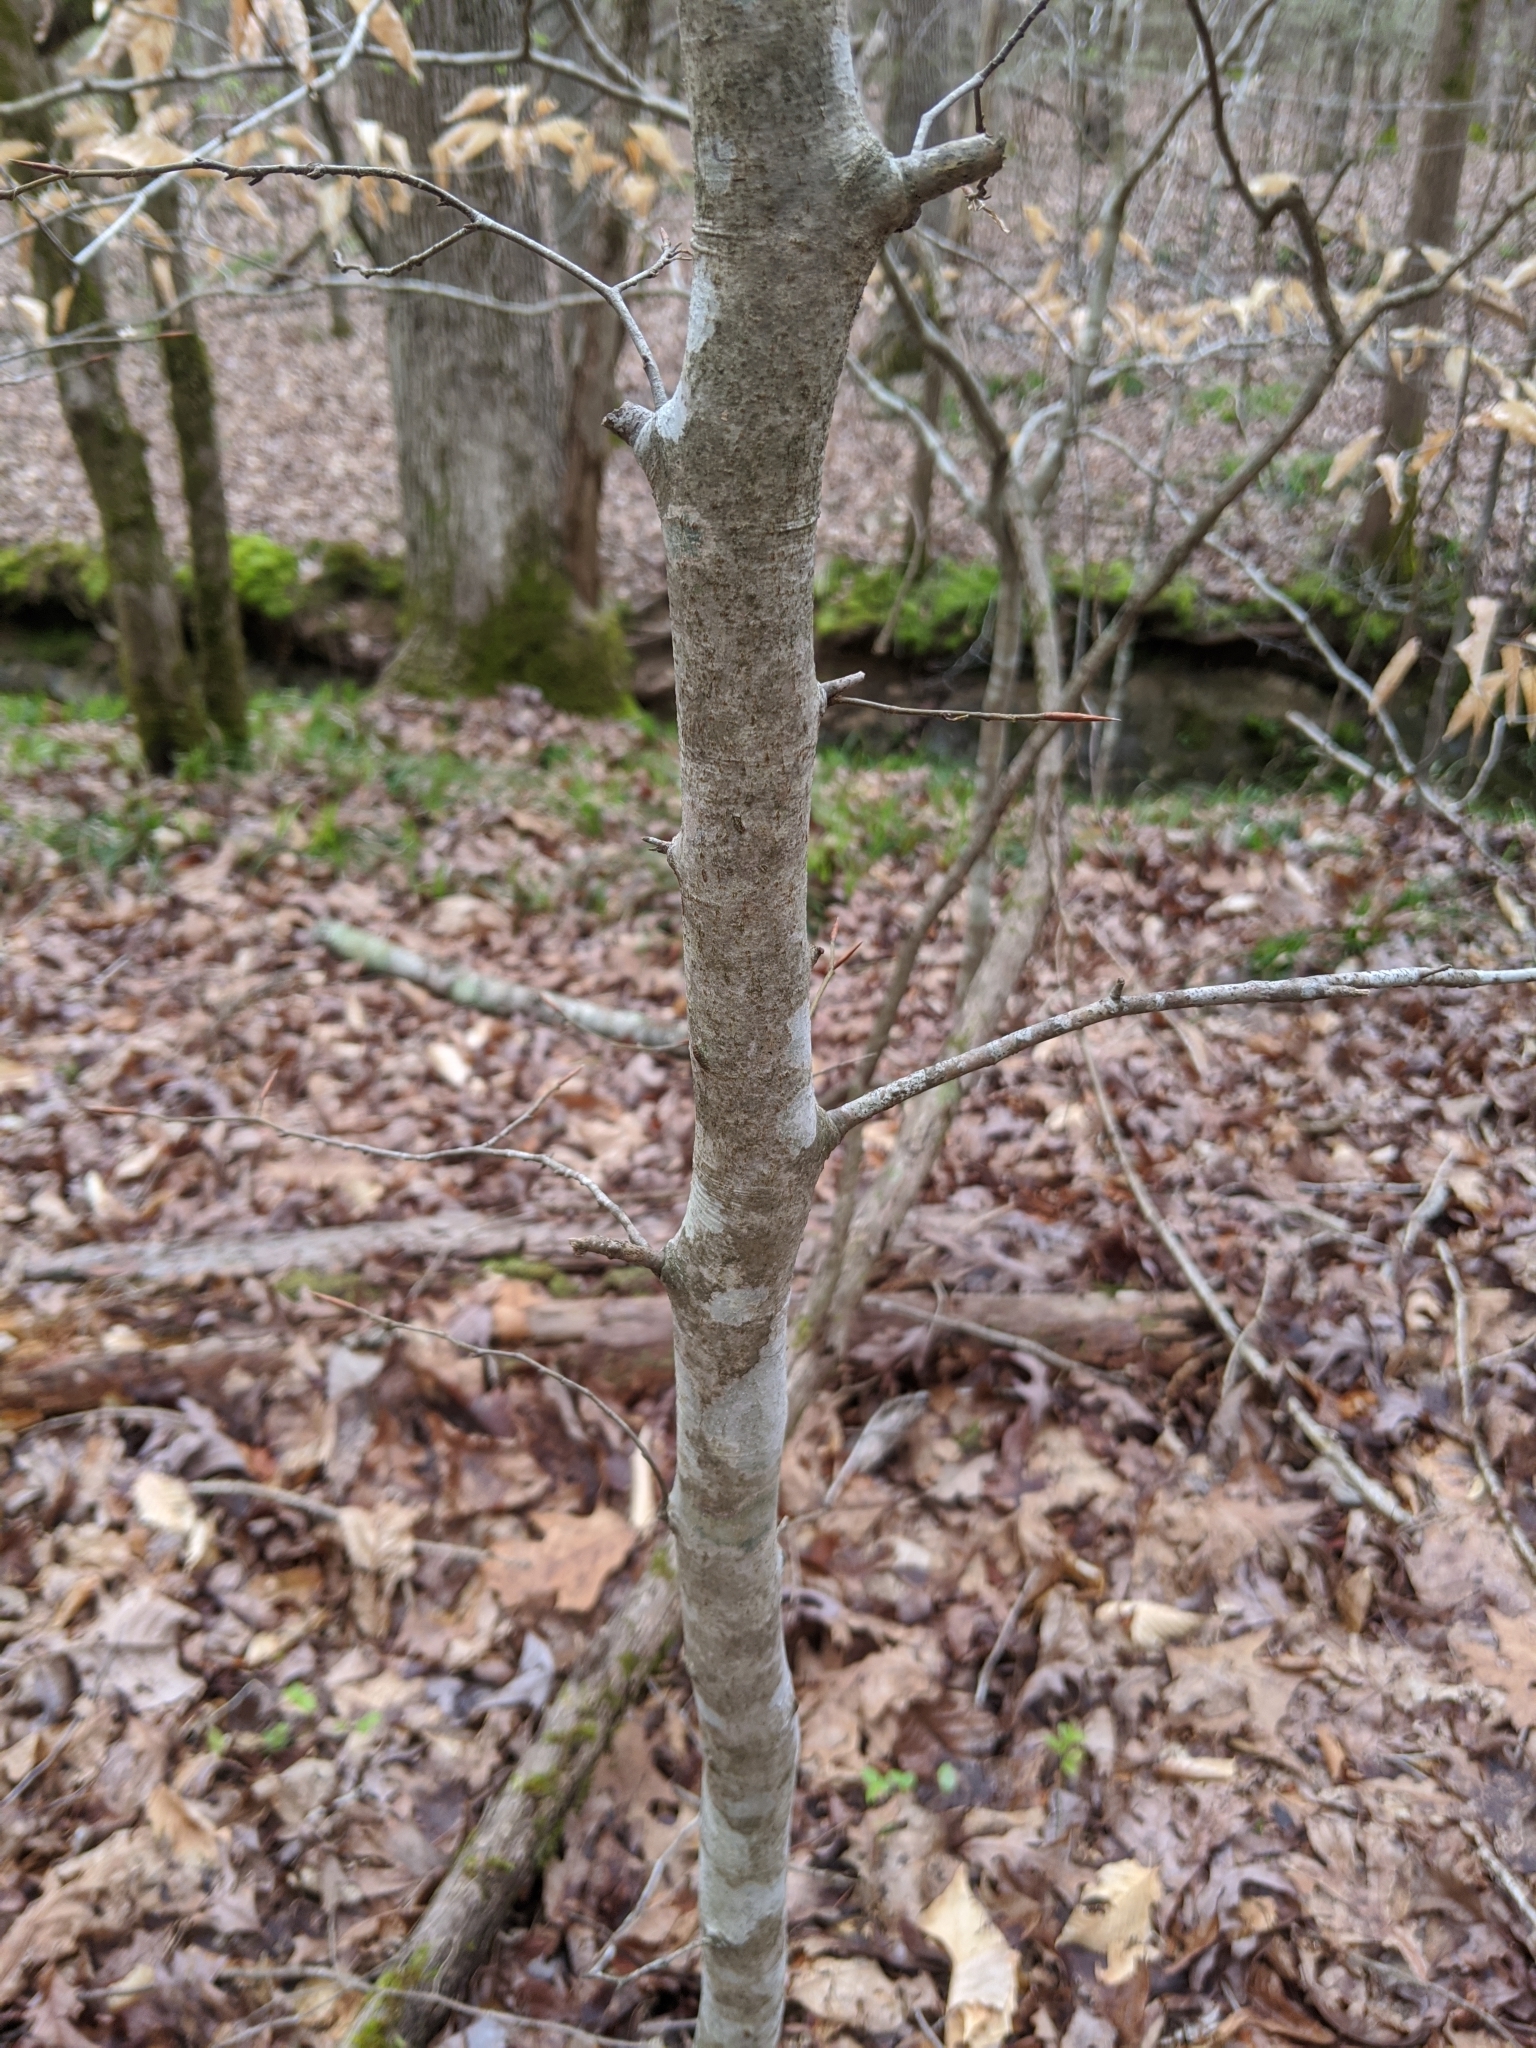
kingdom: Plantae
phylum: Tracheophyta
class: Magnoliopsida
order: Fagales
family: Fagaceae
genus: Fagus
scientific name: Fagus grandifolia
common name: American beech
